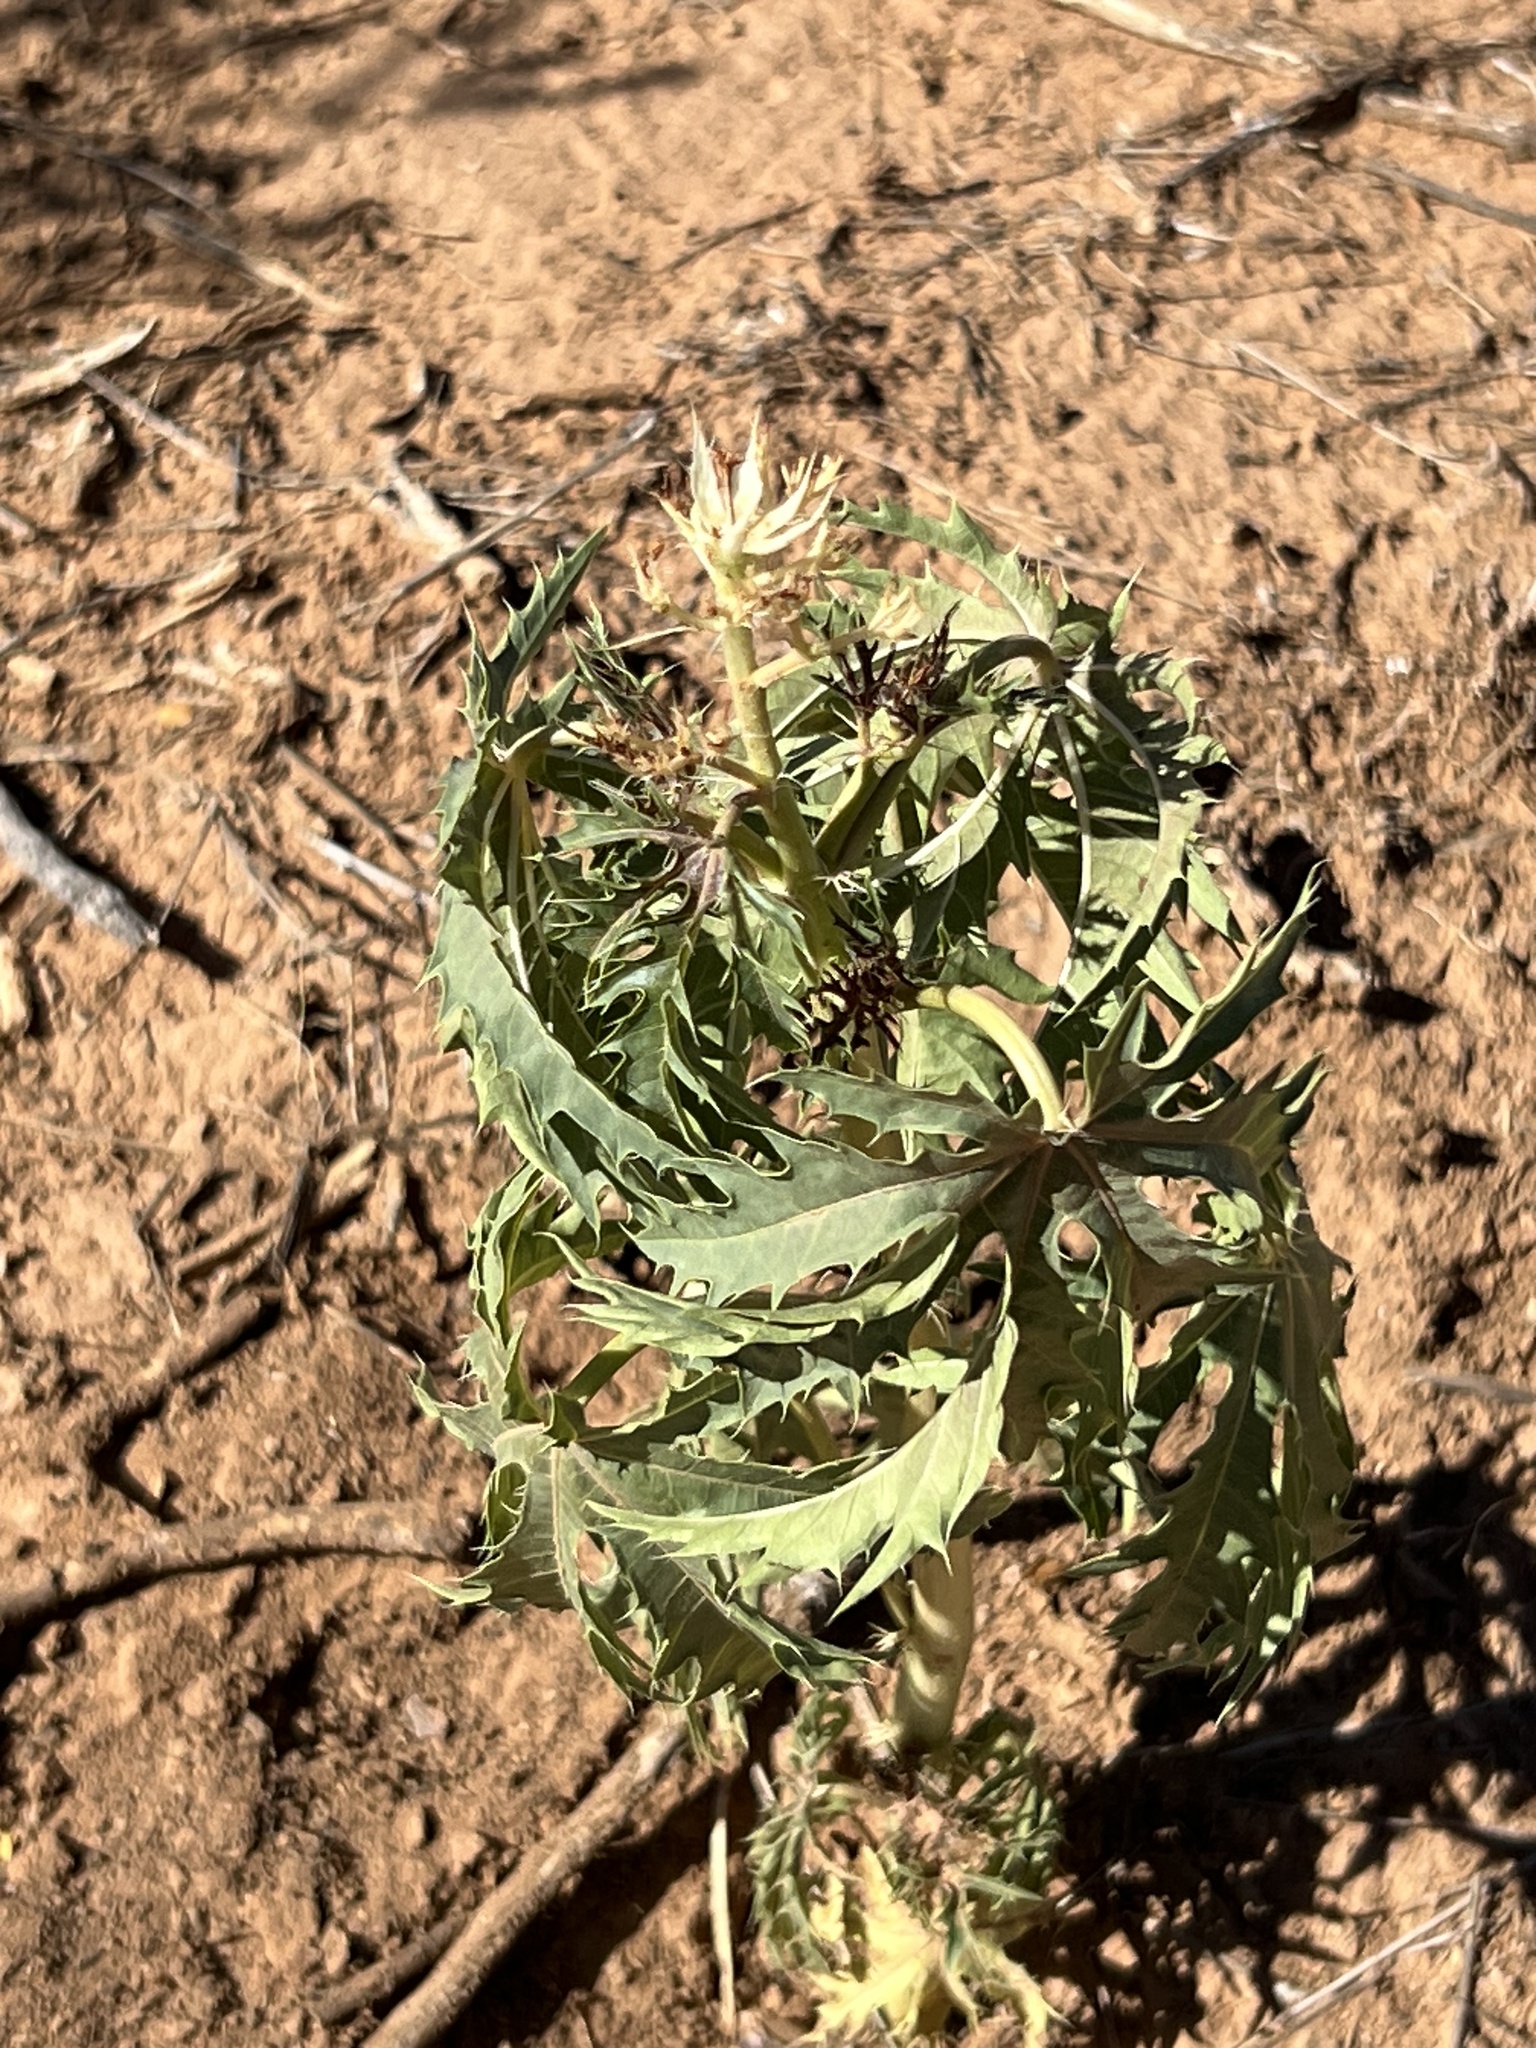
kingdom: Plantae
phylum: Tracheophyta
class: Magnoliopsida
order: Malpighiales
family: Euphorbiaceae
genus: Jatropha
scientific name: Jatropha macrorhiza
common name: Ragged nettlespurge
